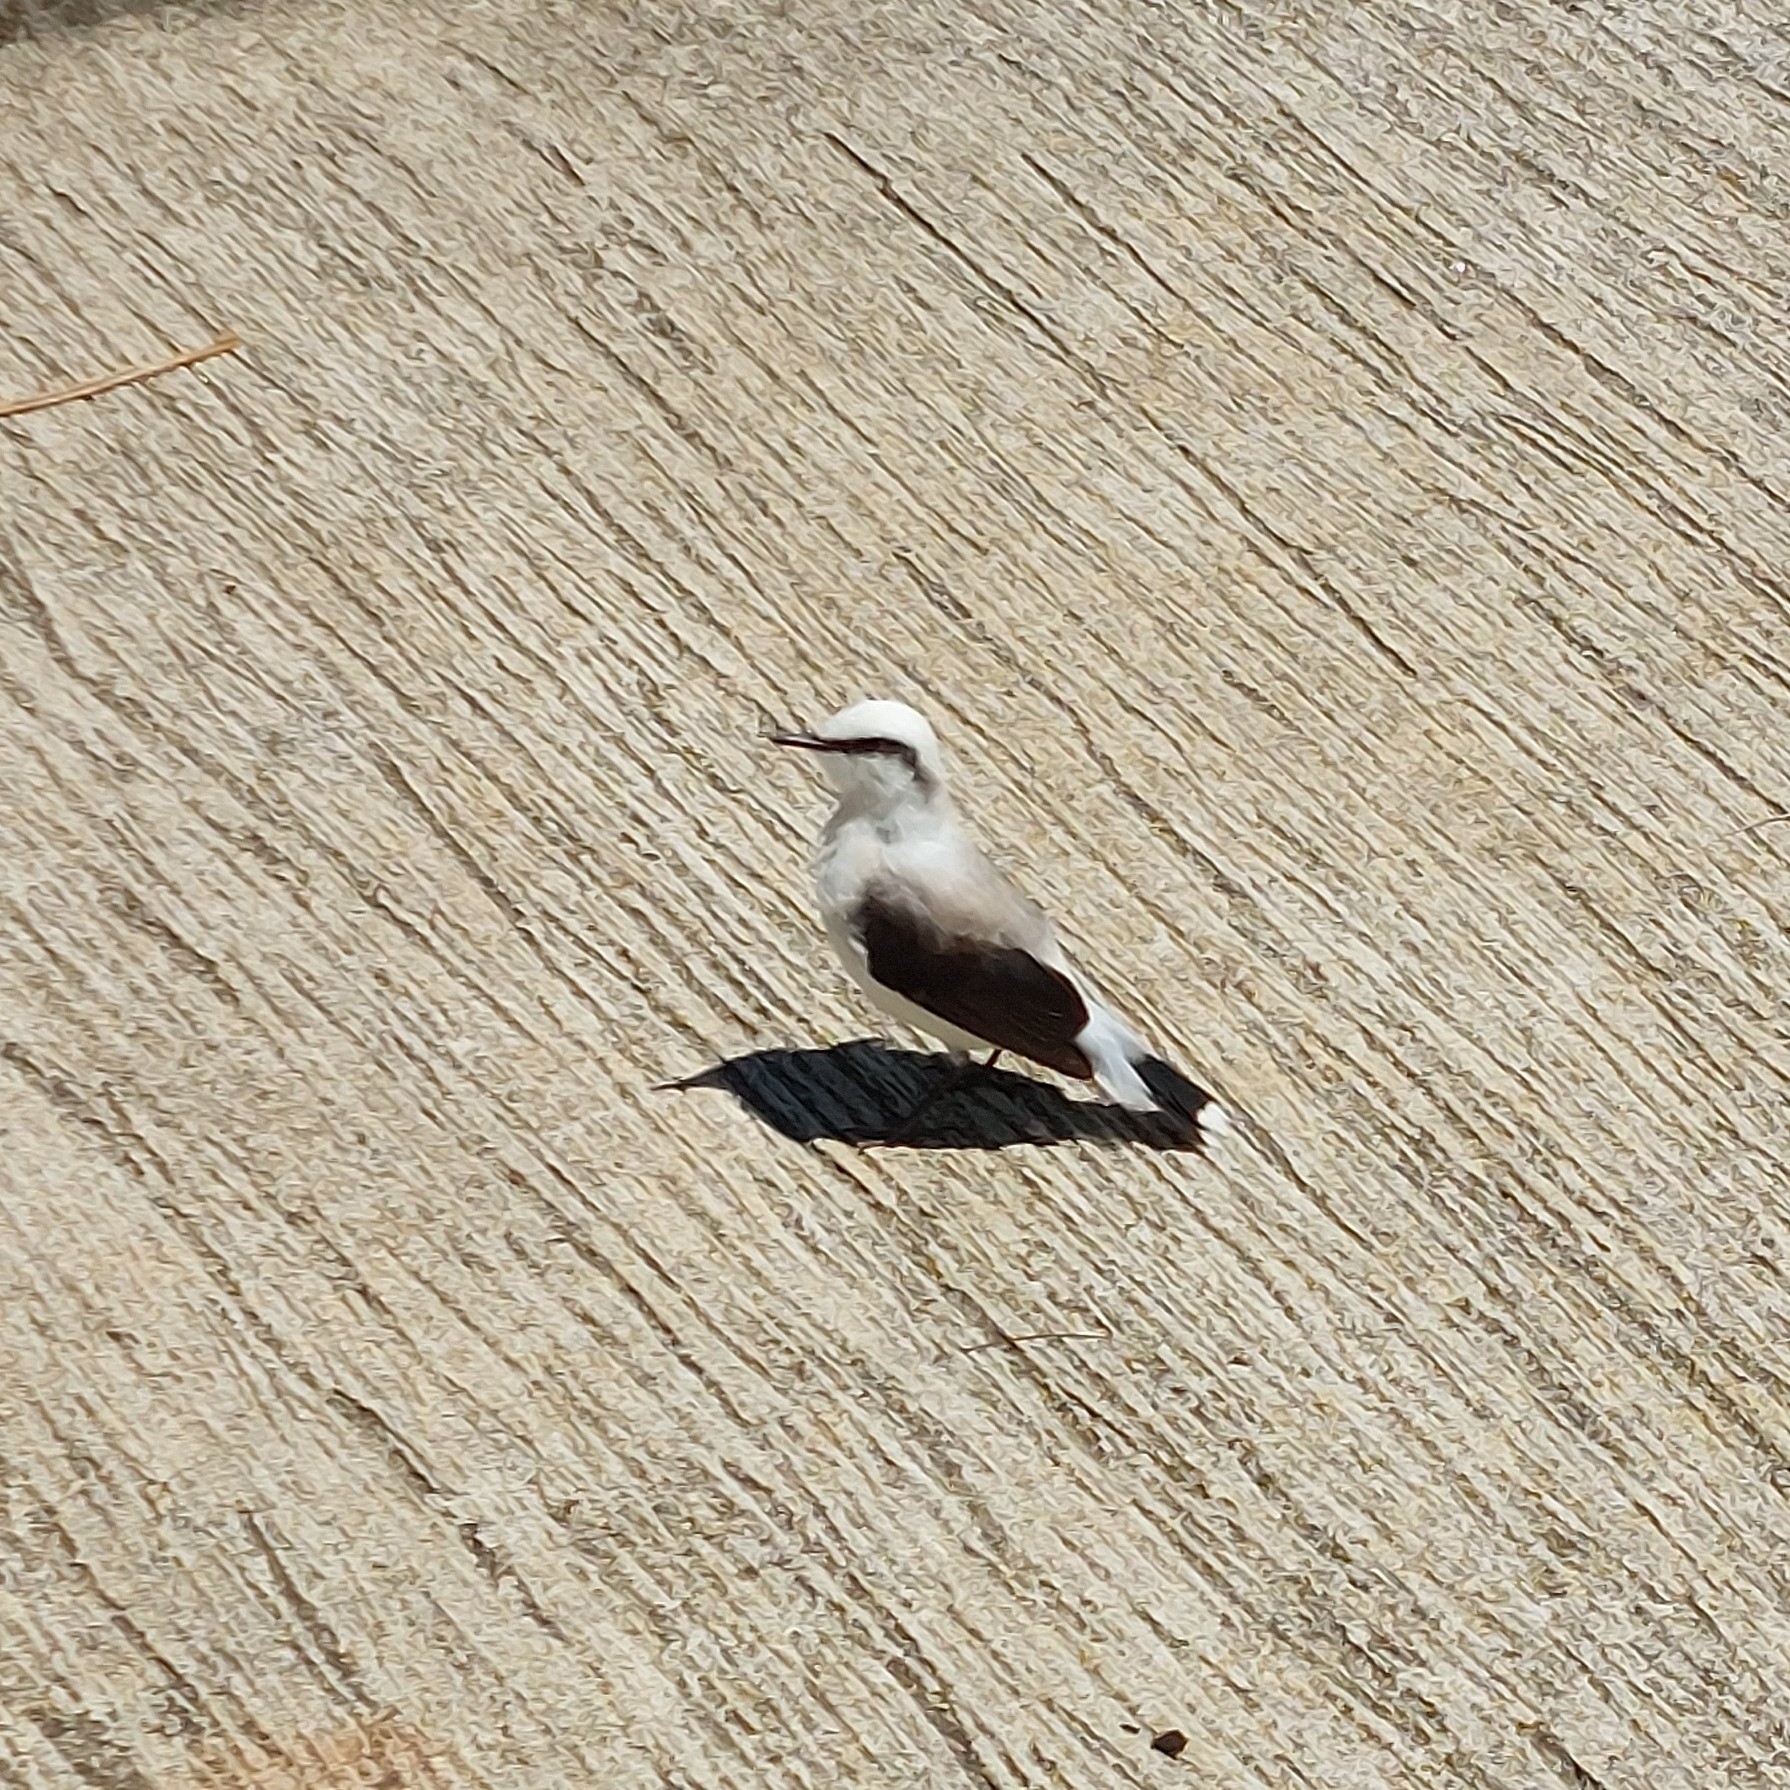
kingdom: Animalia
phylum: Chordata
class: Aves
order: Passeriformes
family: Tyrannidae
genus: Fluvicola
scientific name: Fluvicola nengeta
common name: Masked water tyrant
